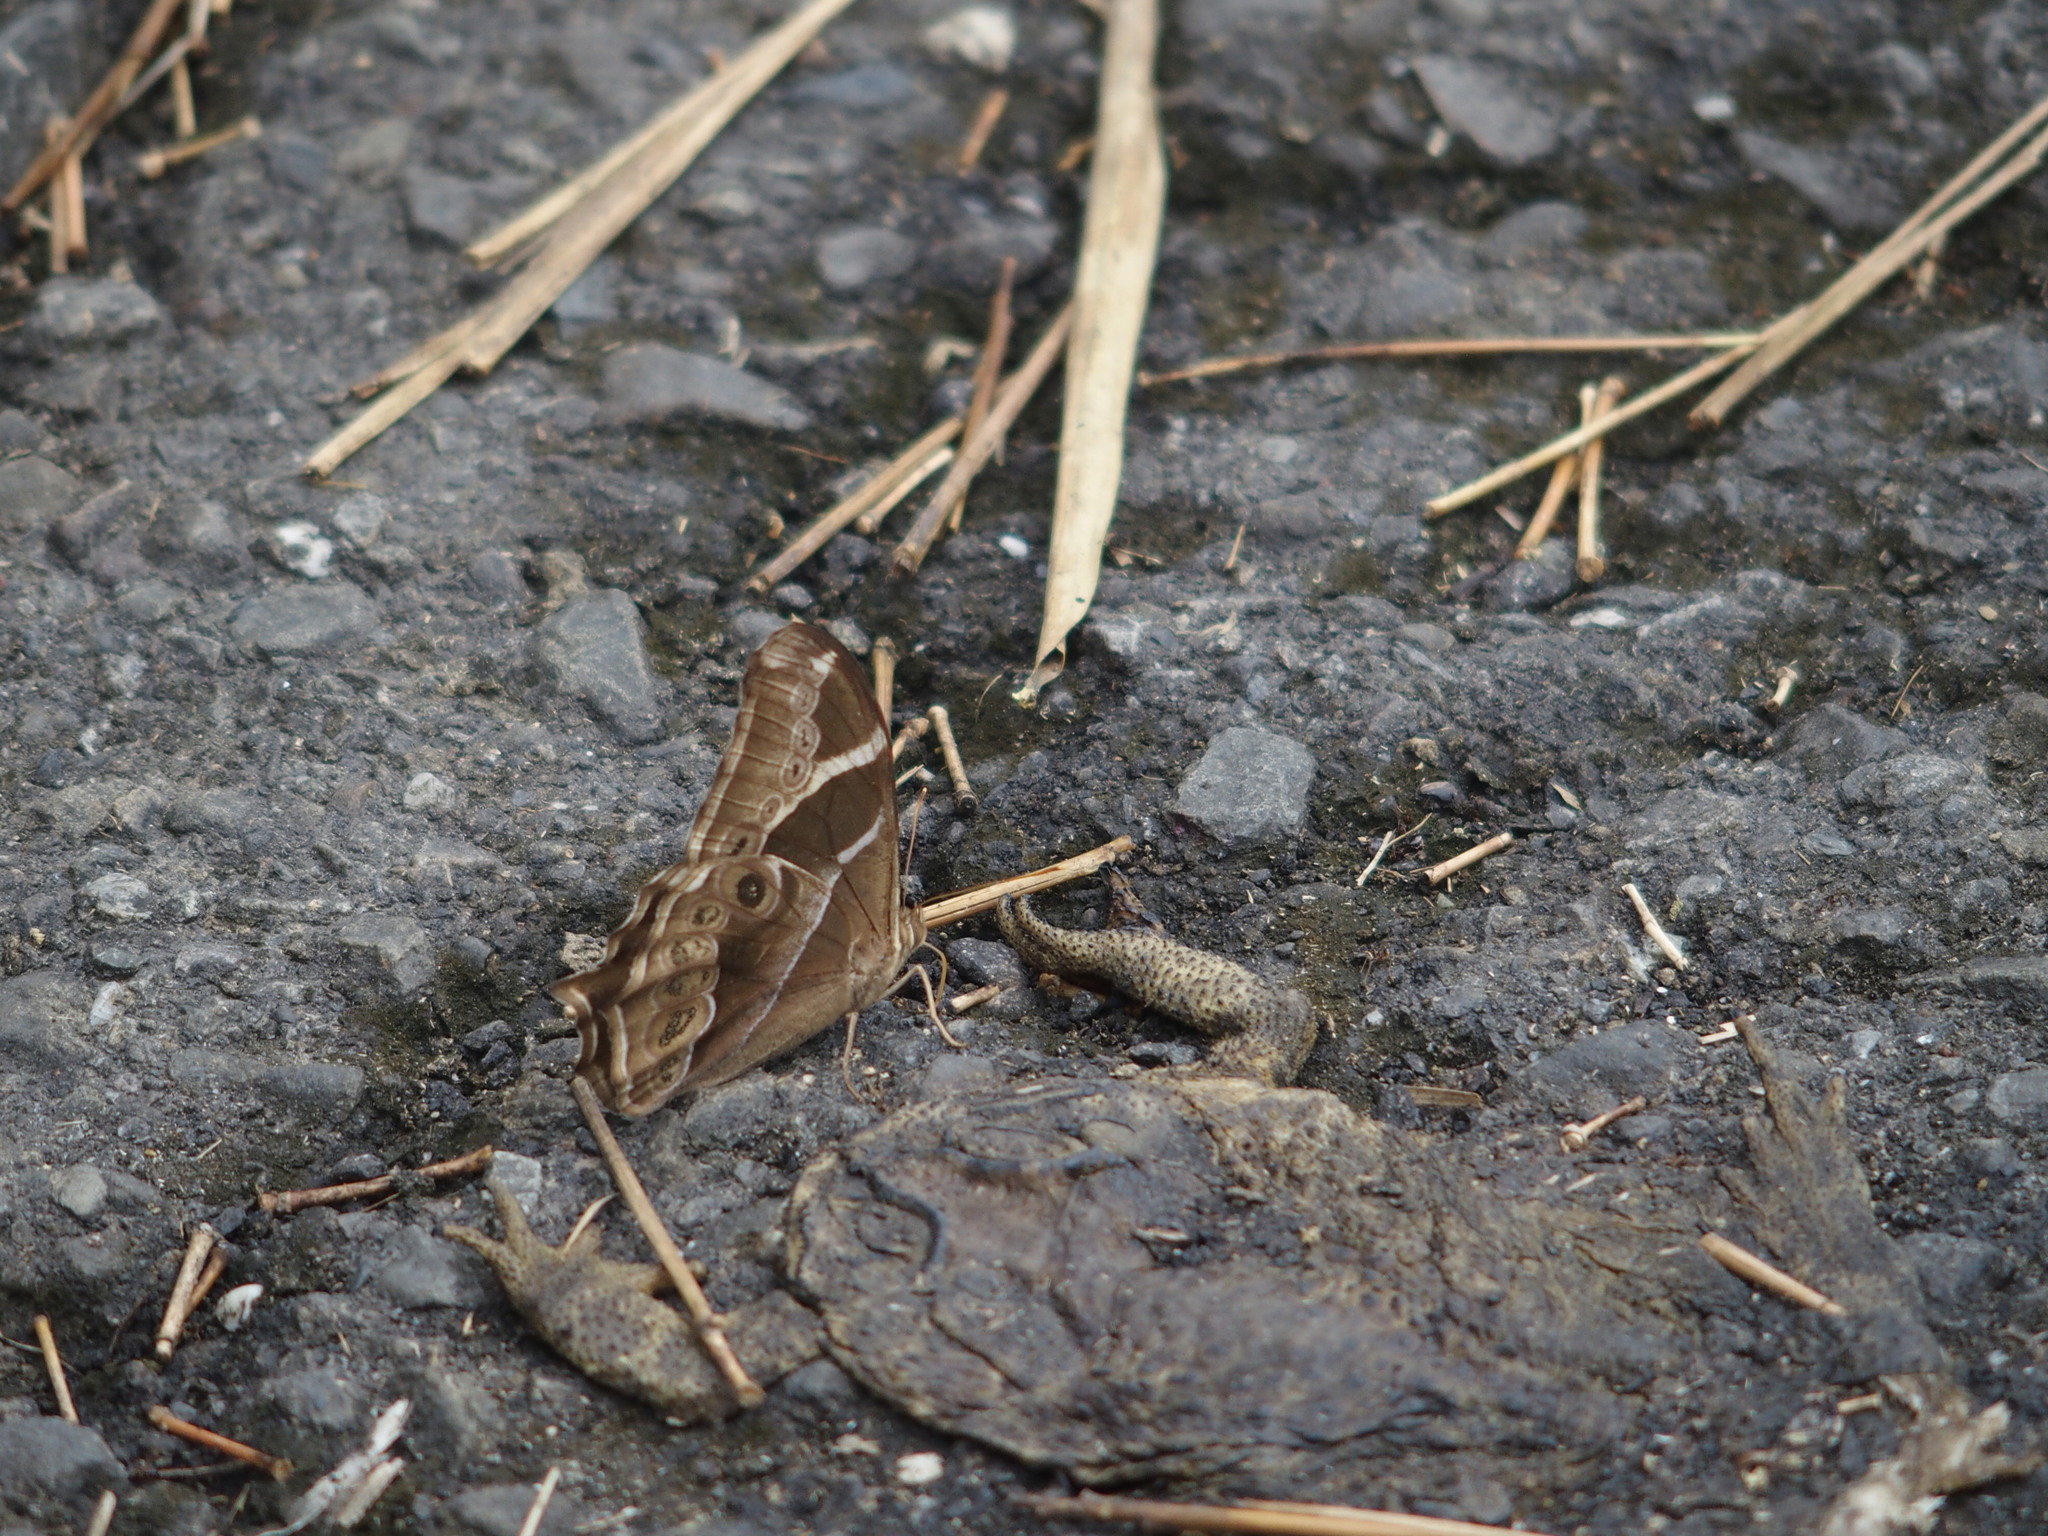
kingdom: Animalia
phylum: Arthropoda
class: Insecta
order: Lepidoptera
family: Nymphalidae
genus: Lethe
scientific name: Lethe europa
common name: Bamboo treebrown
